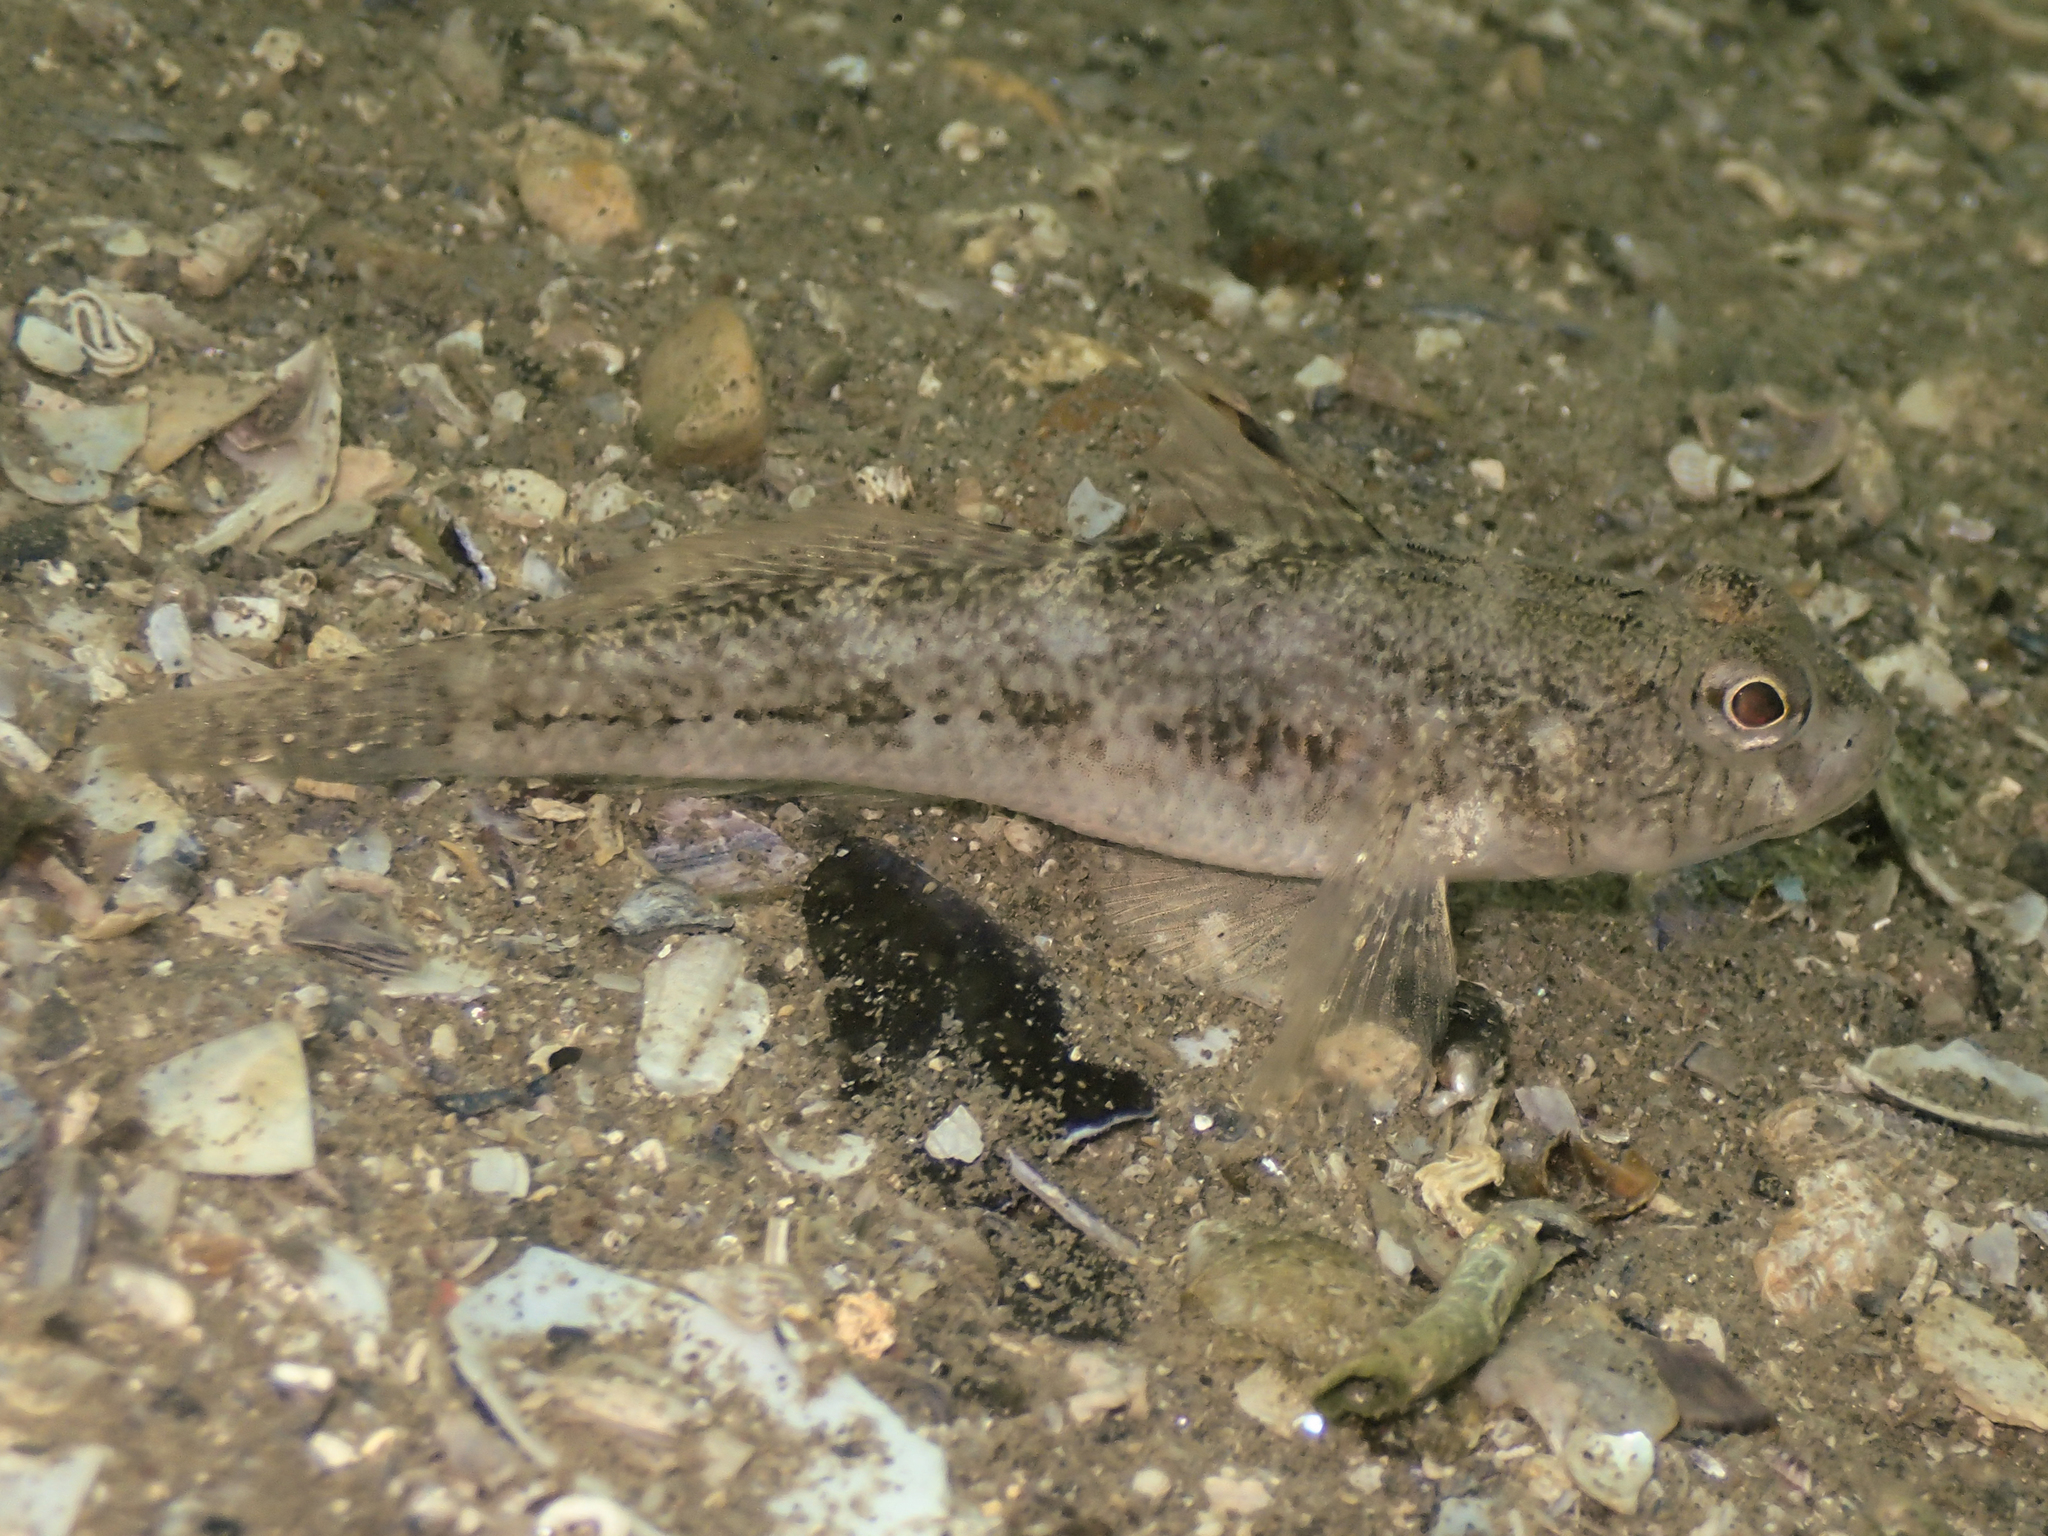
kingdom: Animalia
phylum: Chordata
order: Perciformes
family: Gobiidae
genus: Gobius
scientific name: Gobius niger
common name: Black goby
